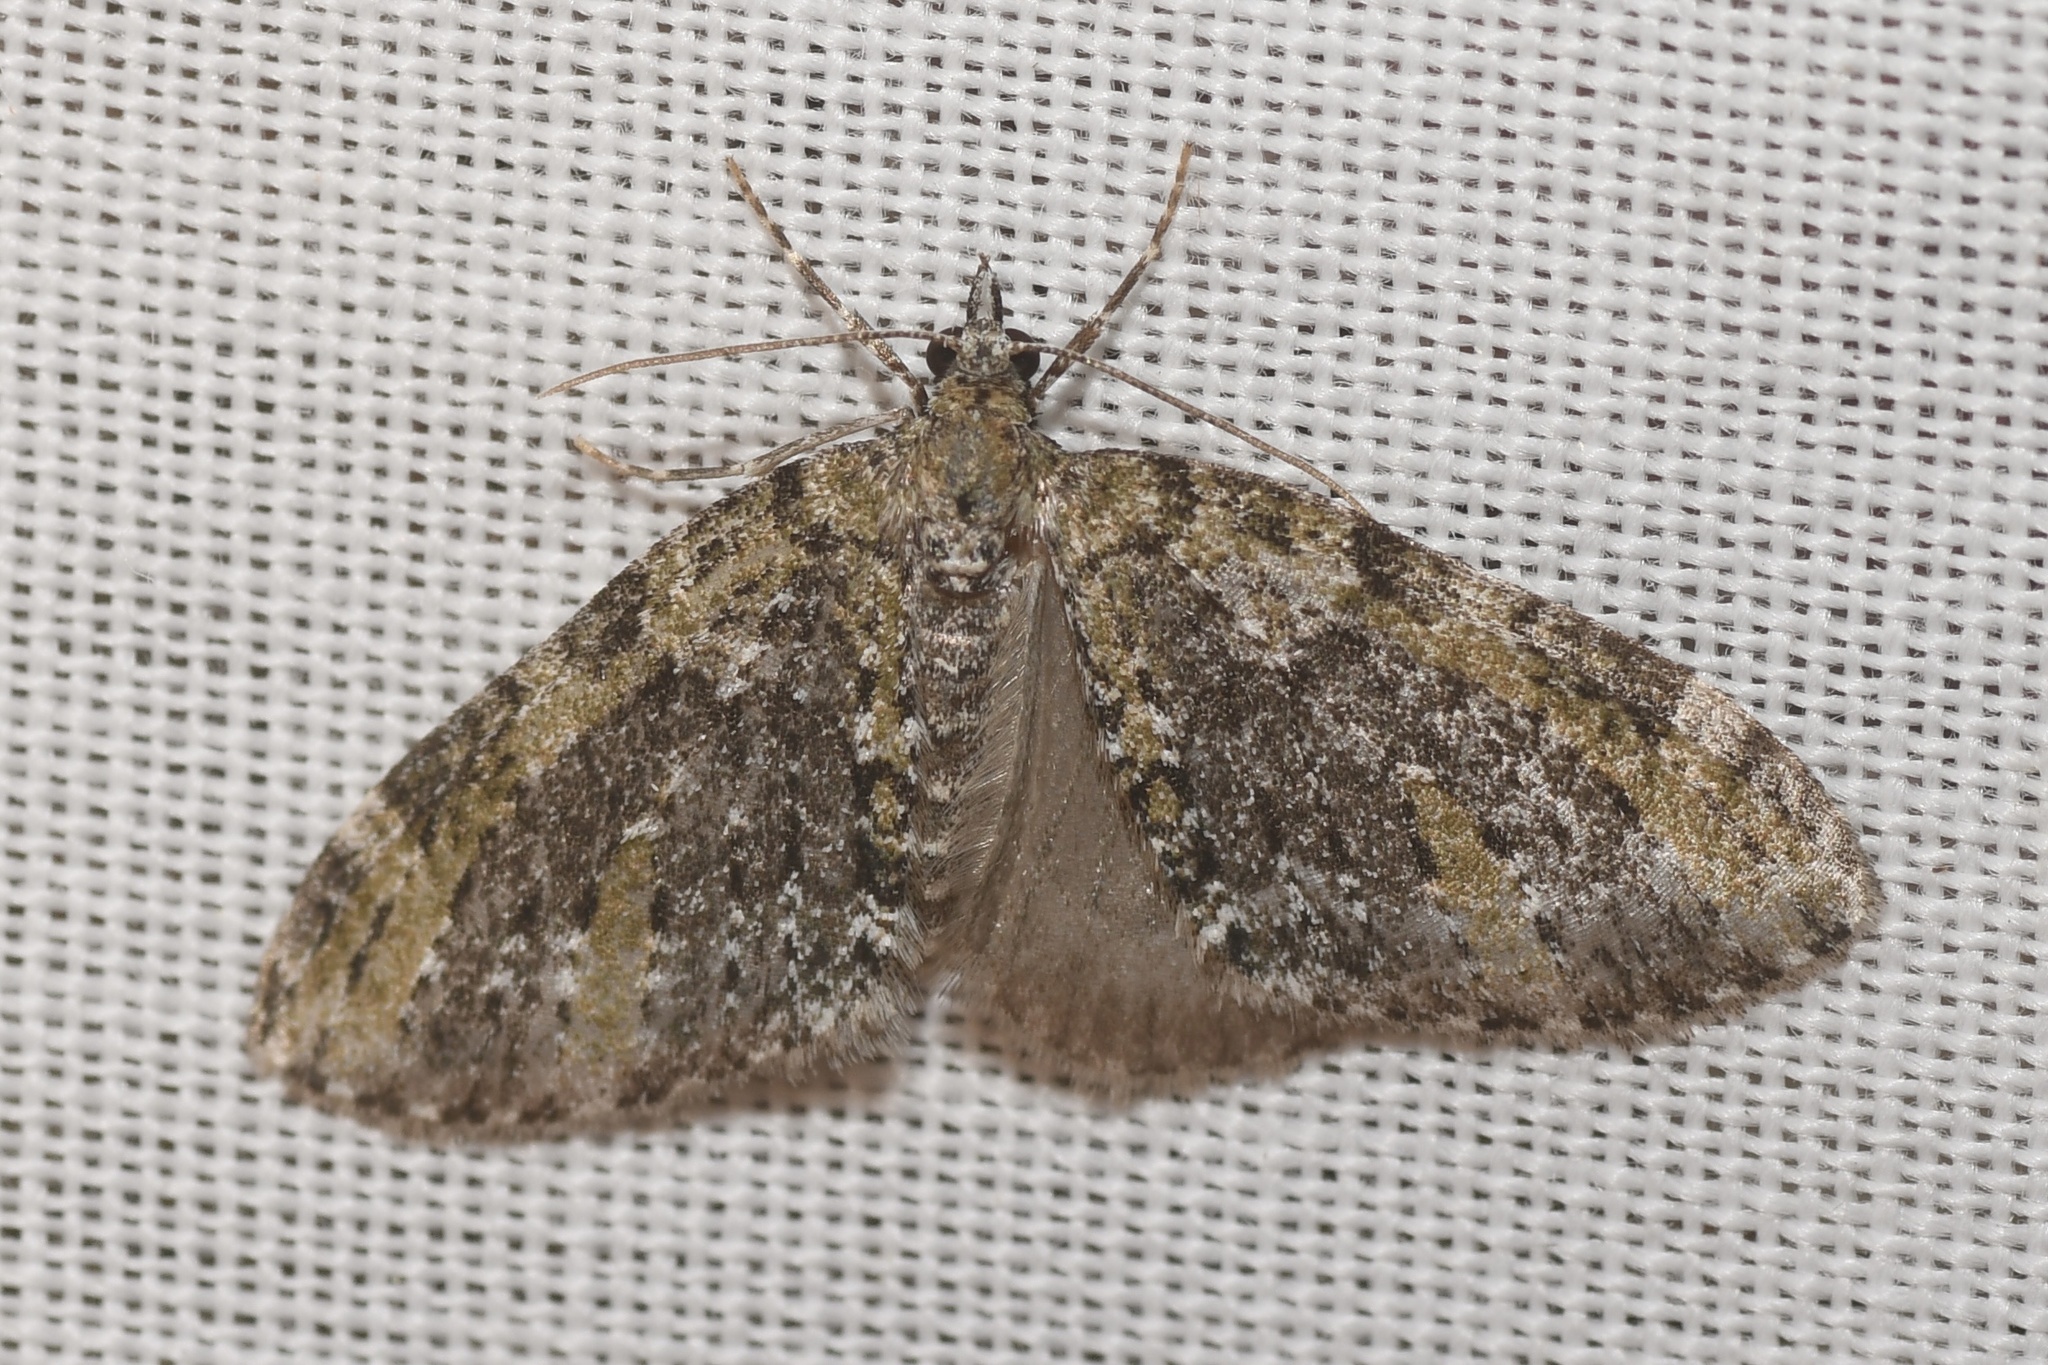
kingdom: Animalia
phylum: Arthropoda
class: Insecta
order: Lepidoptera
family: Geometridae
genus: Acasis
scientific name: Acasis viridata
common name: Olive-and-black carpet moth
